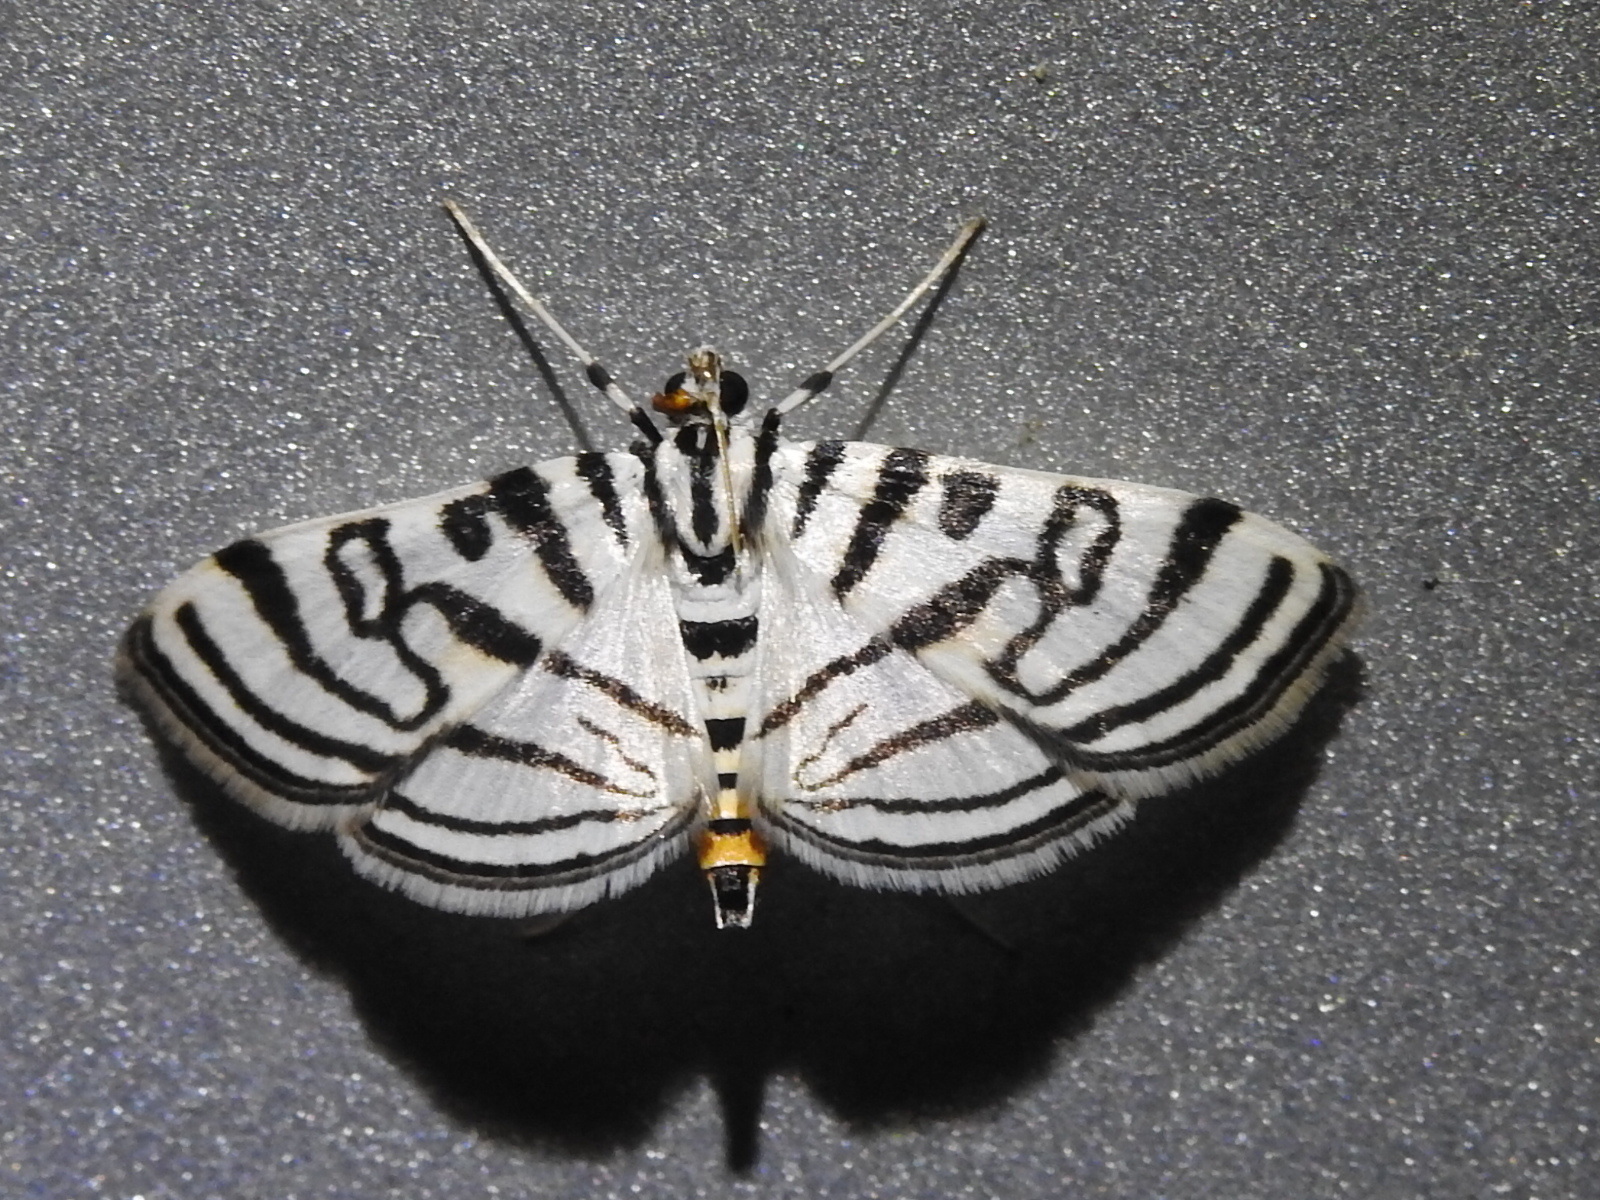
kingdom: Animalia
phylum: Arthropoda
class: Insecta
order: Lepidoptera
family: Crambidae
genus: Conchylodes
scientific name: Conchylodes ovulalis
